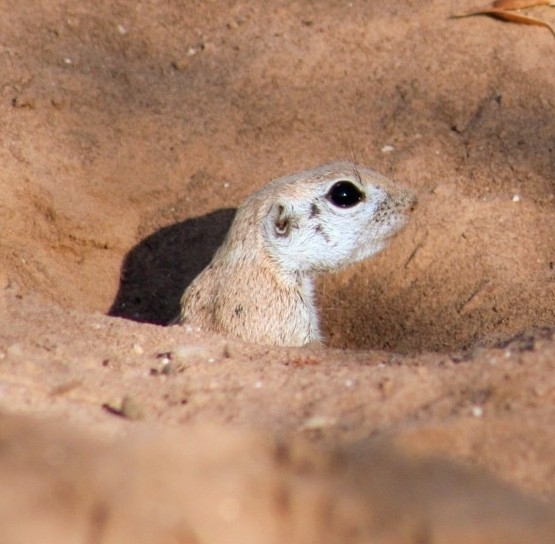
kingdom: Animalia
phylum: Chordata
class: Mammalia
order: Rodentia
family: Sciuridae
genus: Xerospermophilus
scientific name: Xerospermophilus tereticaudus
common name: Round-tailed ground squirrel
